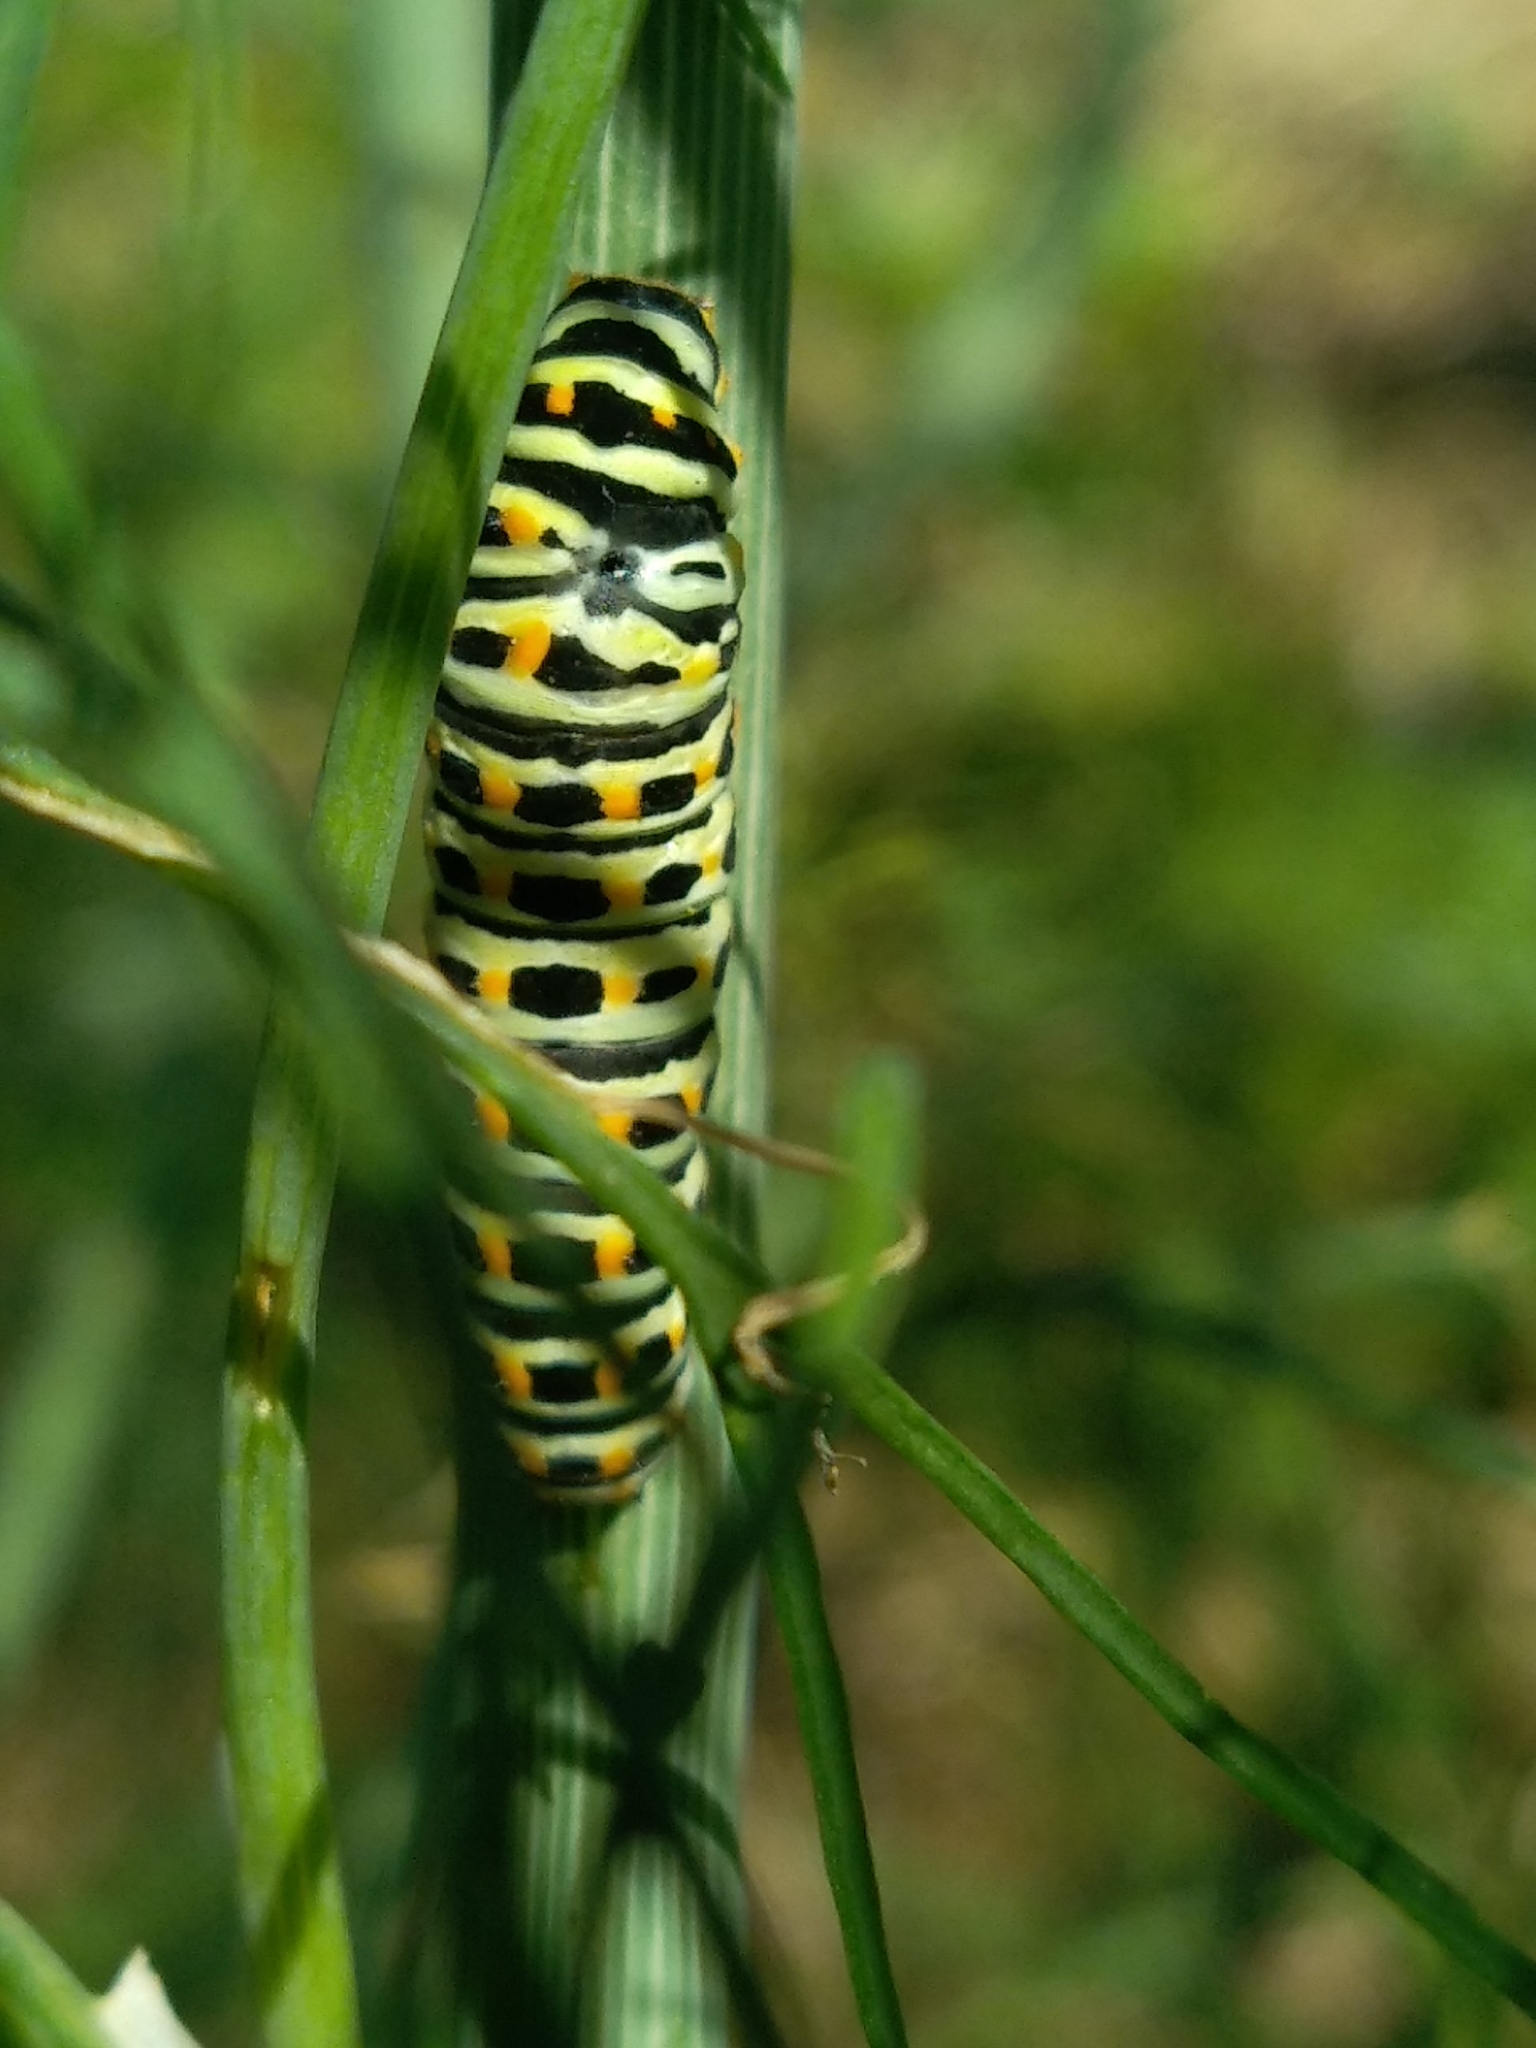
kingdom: Animalia
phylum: Arthropoda
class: Insecta
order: Lepidoptera
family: Papilionidae
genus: Papilio
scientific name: Papilio machaon
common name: Swallowtail
